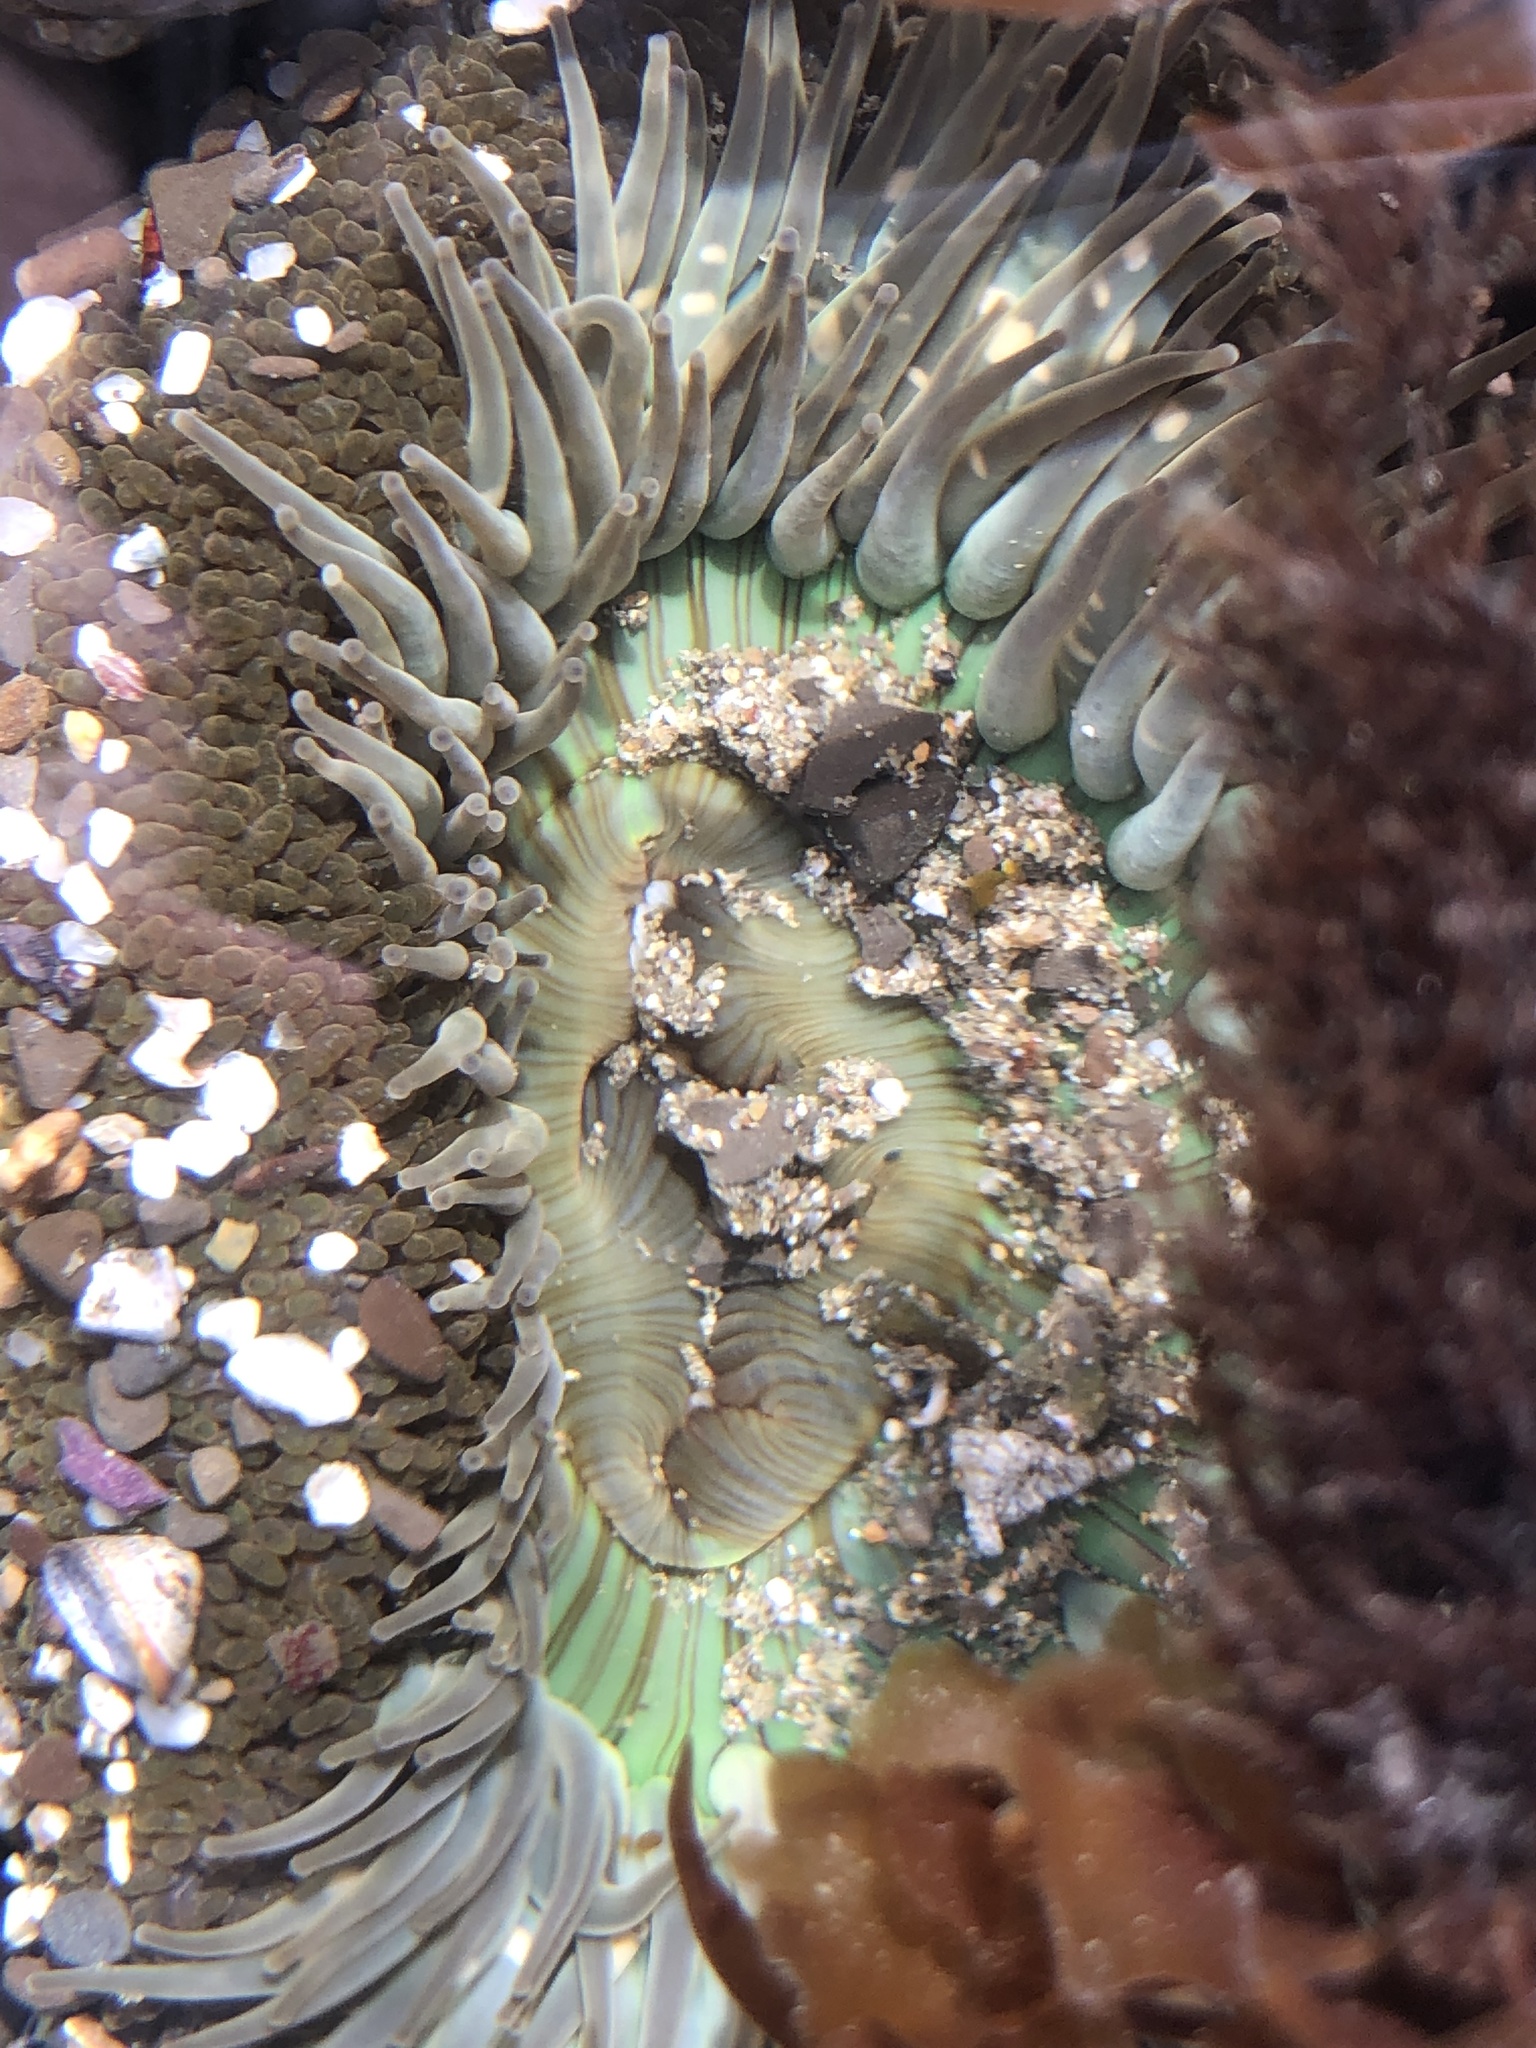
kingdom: Animalia
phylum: Cnidaria
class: Anthozoa
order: Actiniaria
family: Actiniidae
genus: Anthopleura
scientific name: Anthopleura sola
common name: Sun anemone
